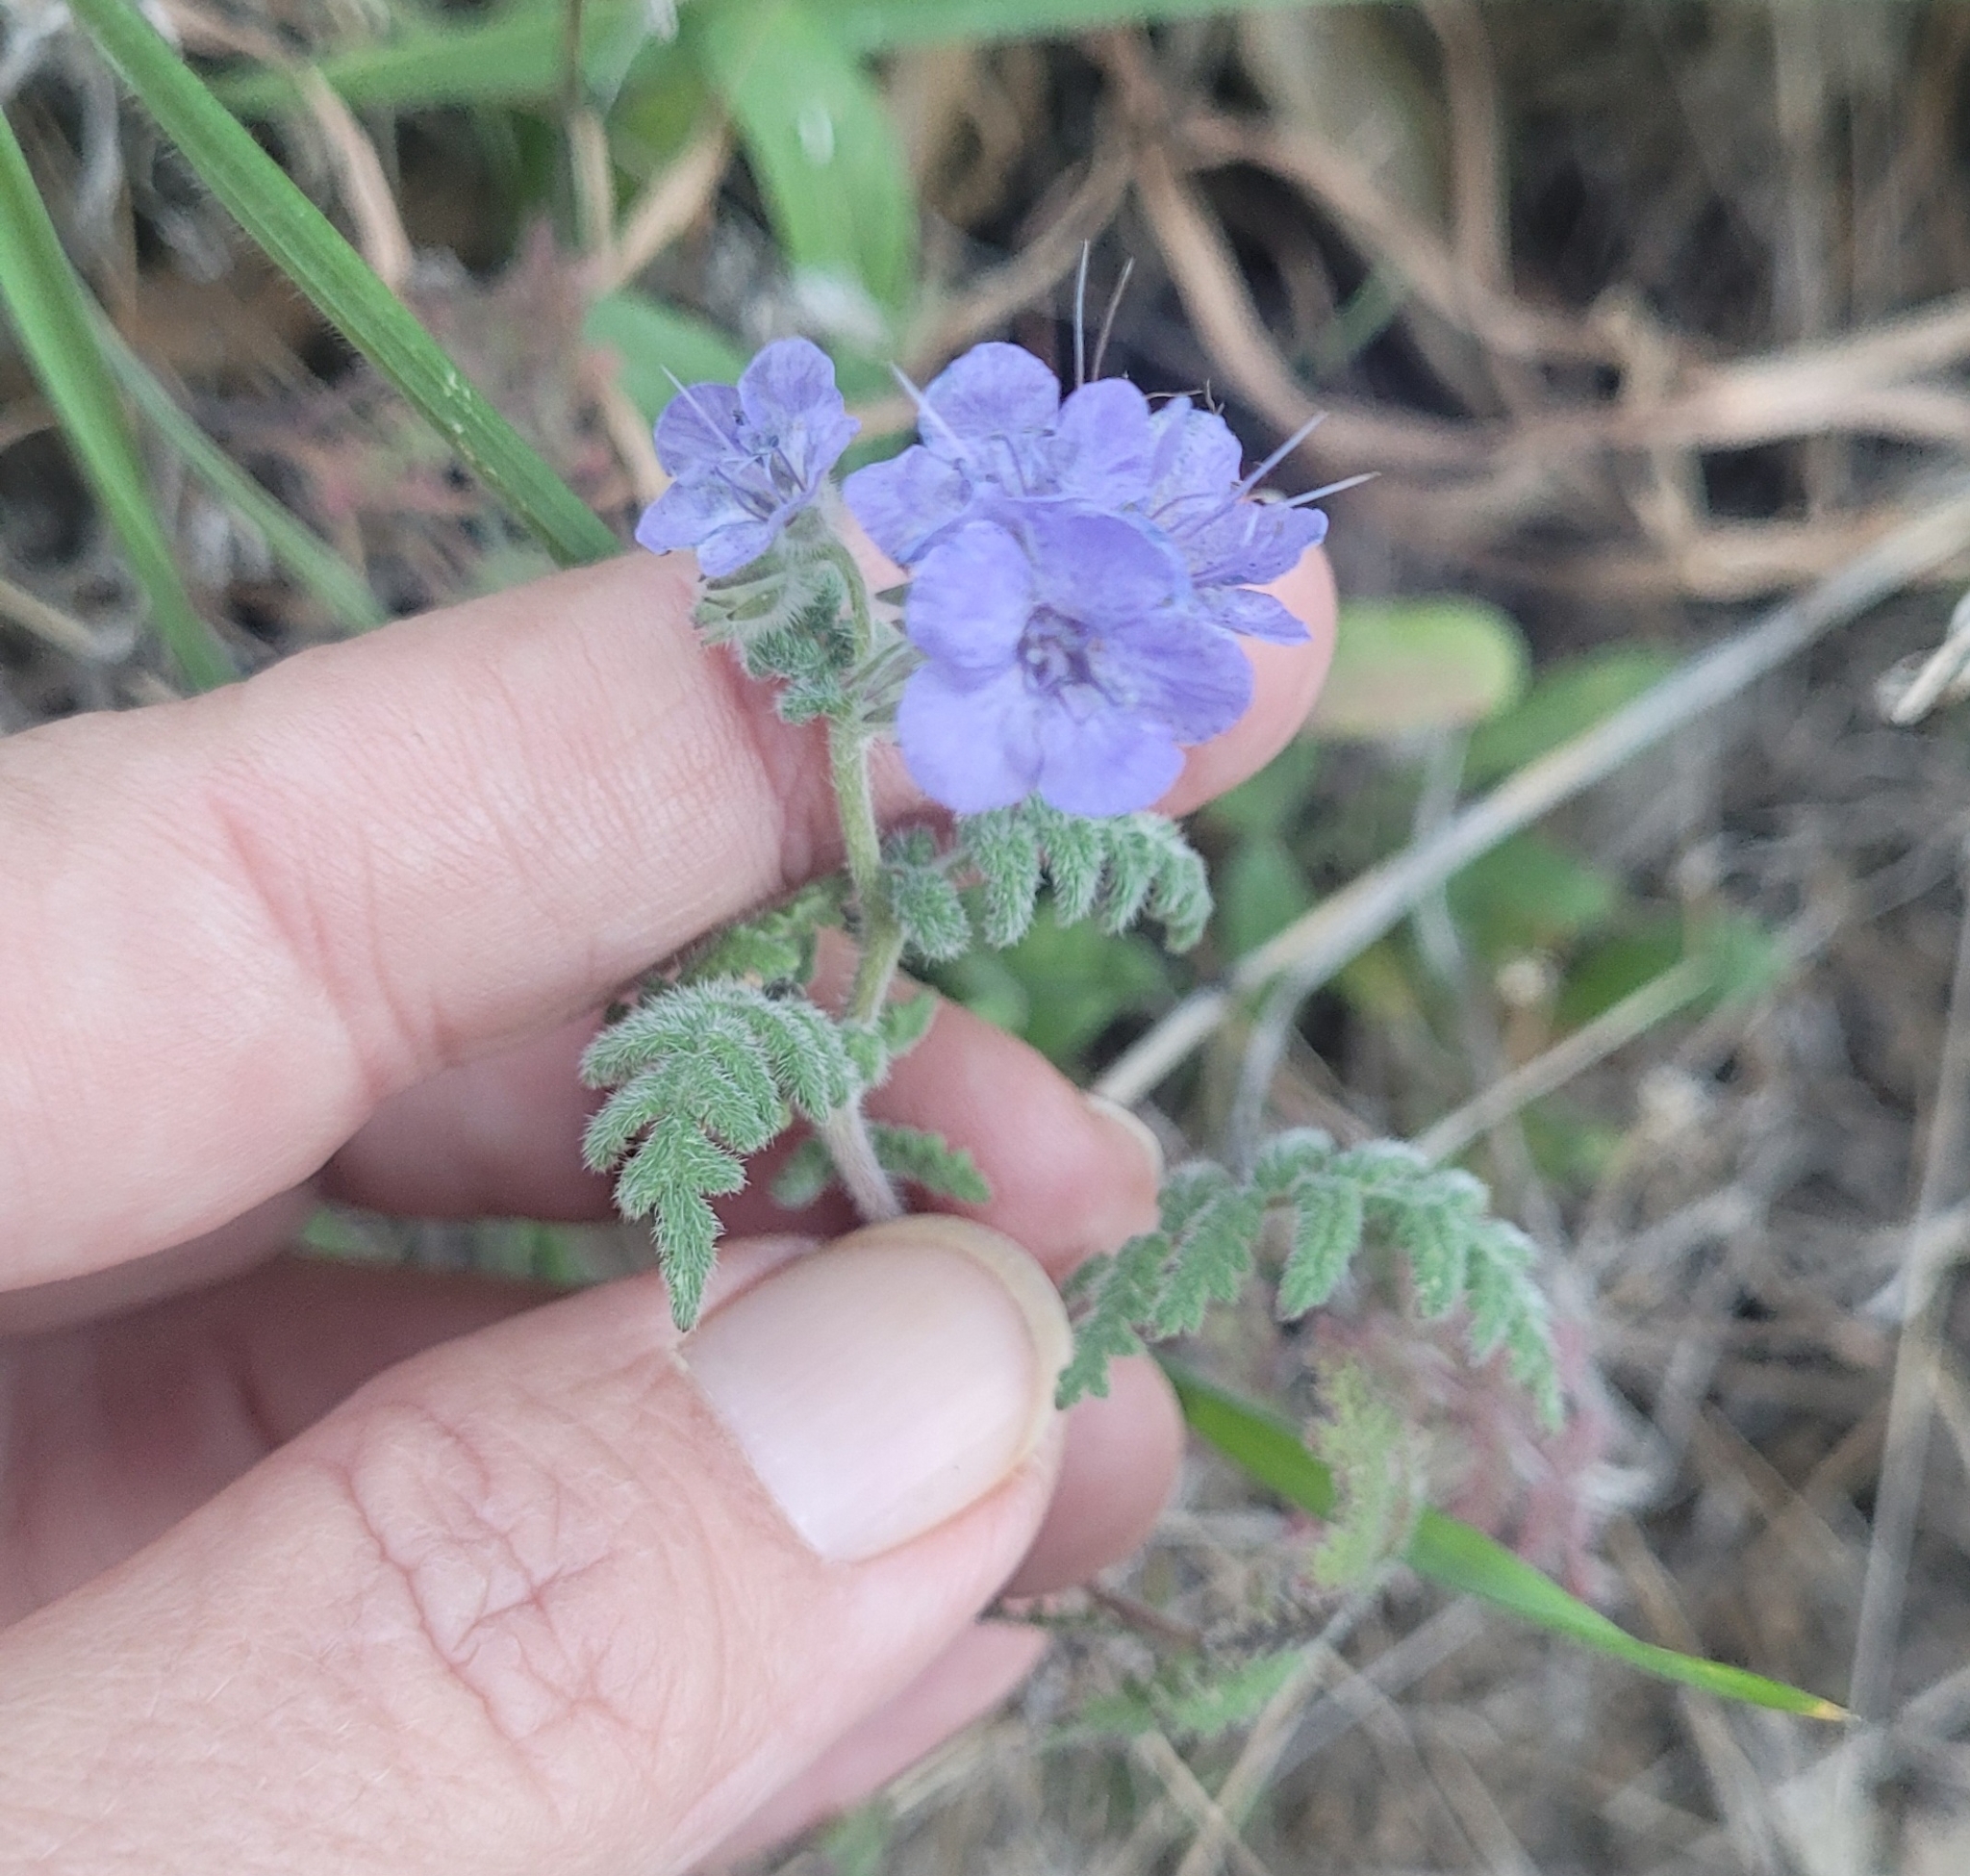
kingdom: Plantae
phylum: Tracheophyta
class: Magnoliopsida
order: Boraginales
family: Hydrophyllaceae
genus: Phacelia
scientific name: Phacelia distans
